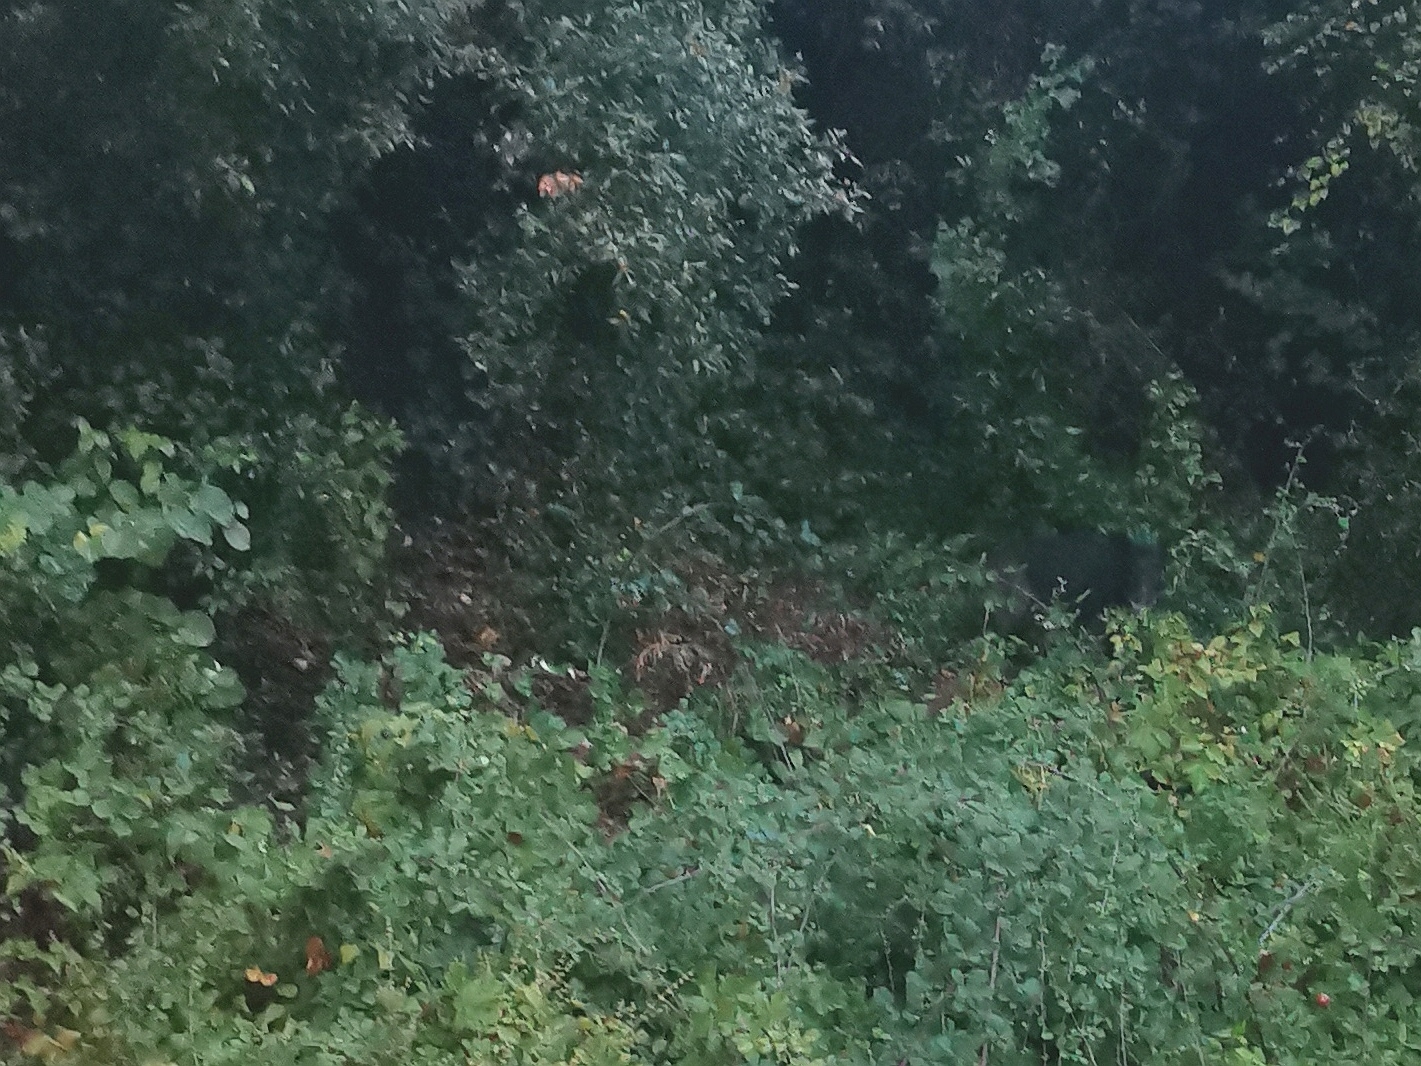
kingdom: Animalia
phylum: Chordata
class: Mammalia
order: Artiodactyla
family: Suidae
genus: Sus
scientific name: Sus scrofa
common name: Wild boar
